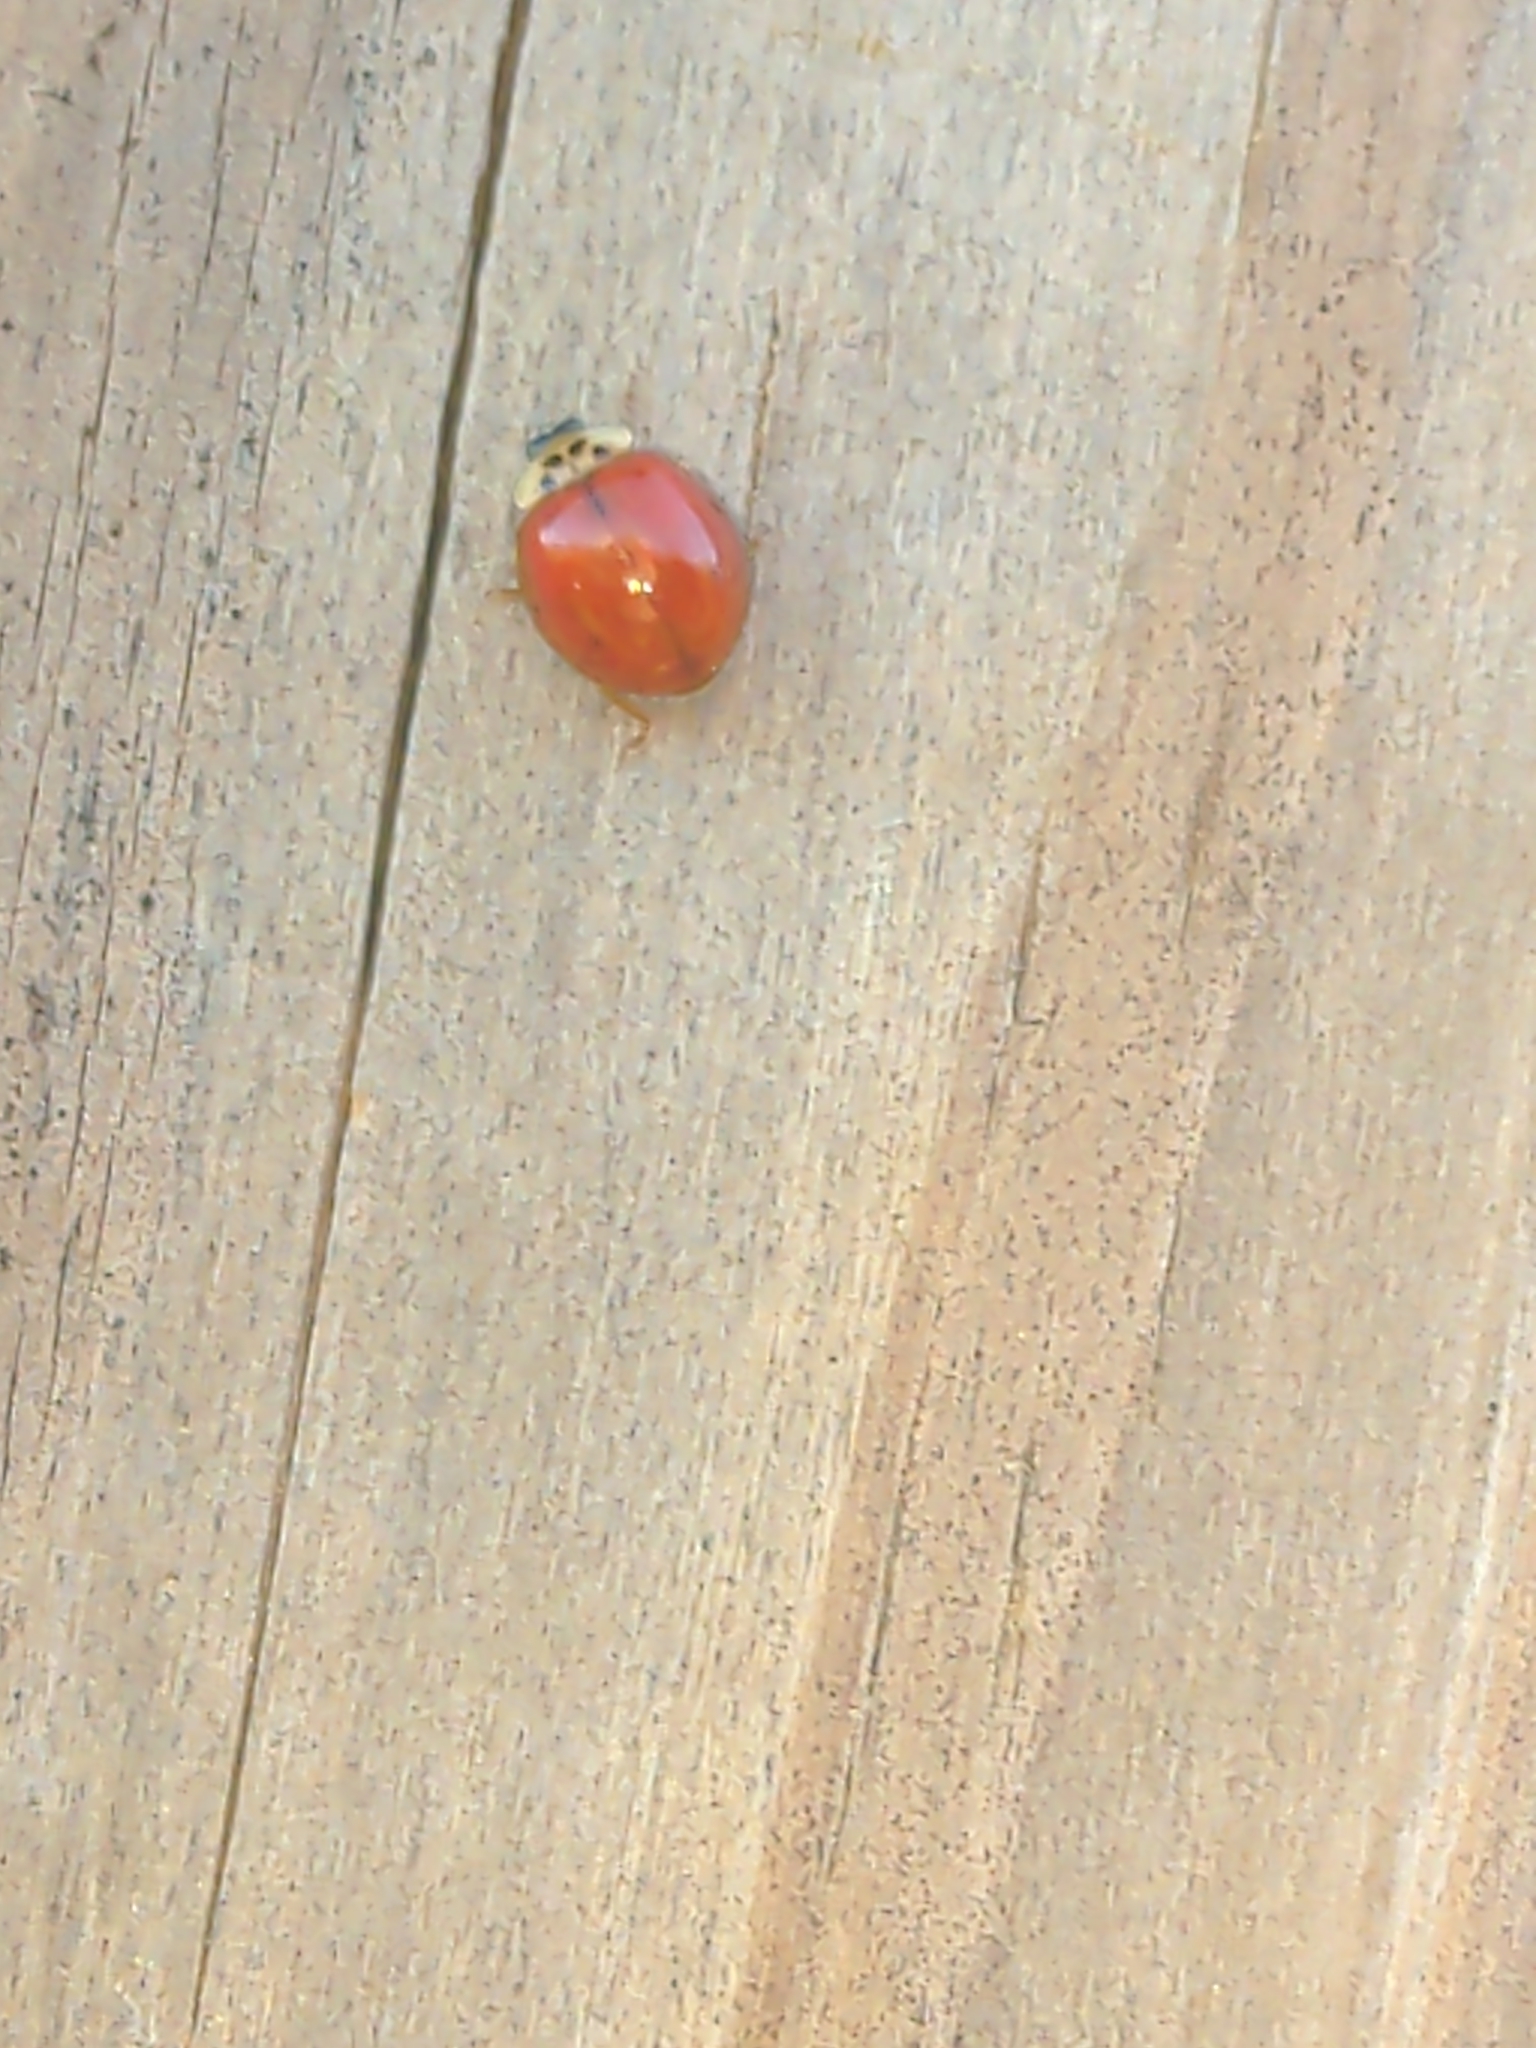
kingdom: Animalia
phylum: Arthropoda
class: Insecta
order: Coleoptera
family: Coccinellidae
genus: Harmonia
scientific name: Harmonia axyridis
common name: Harlequin ladybird
